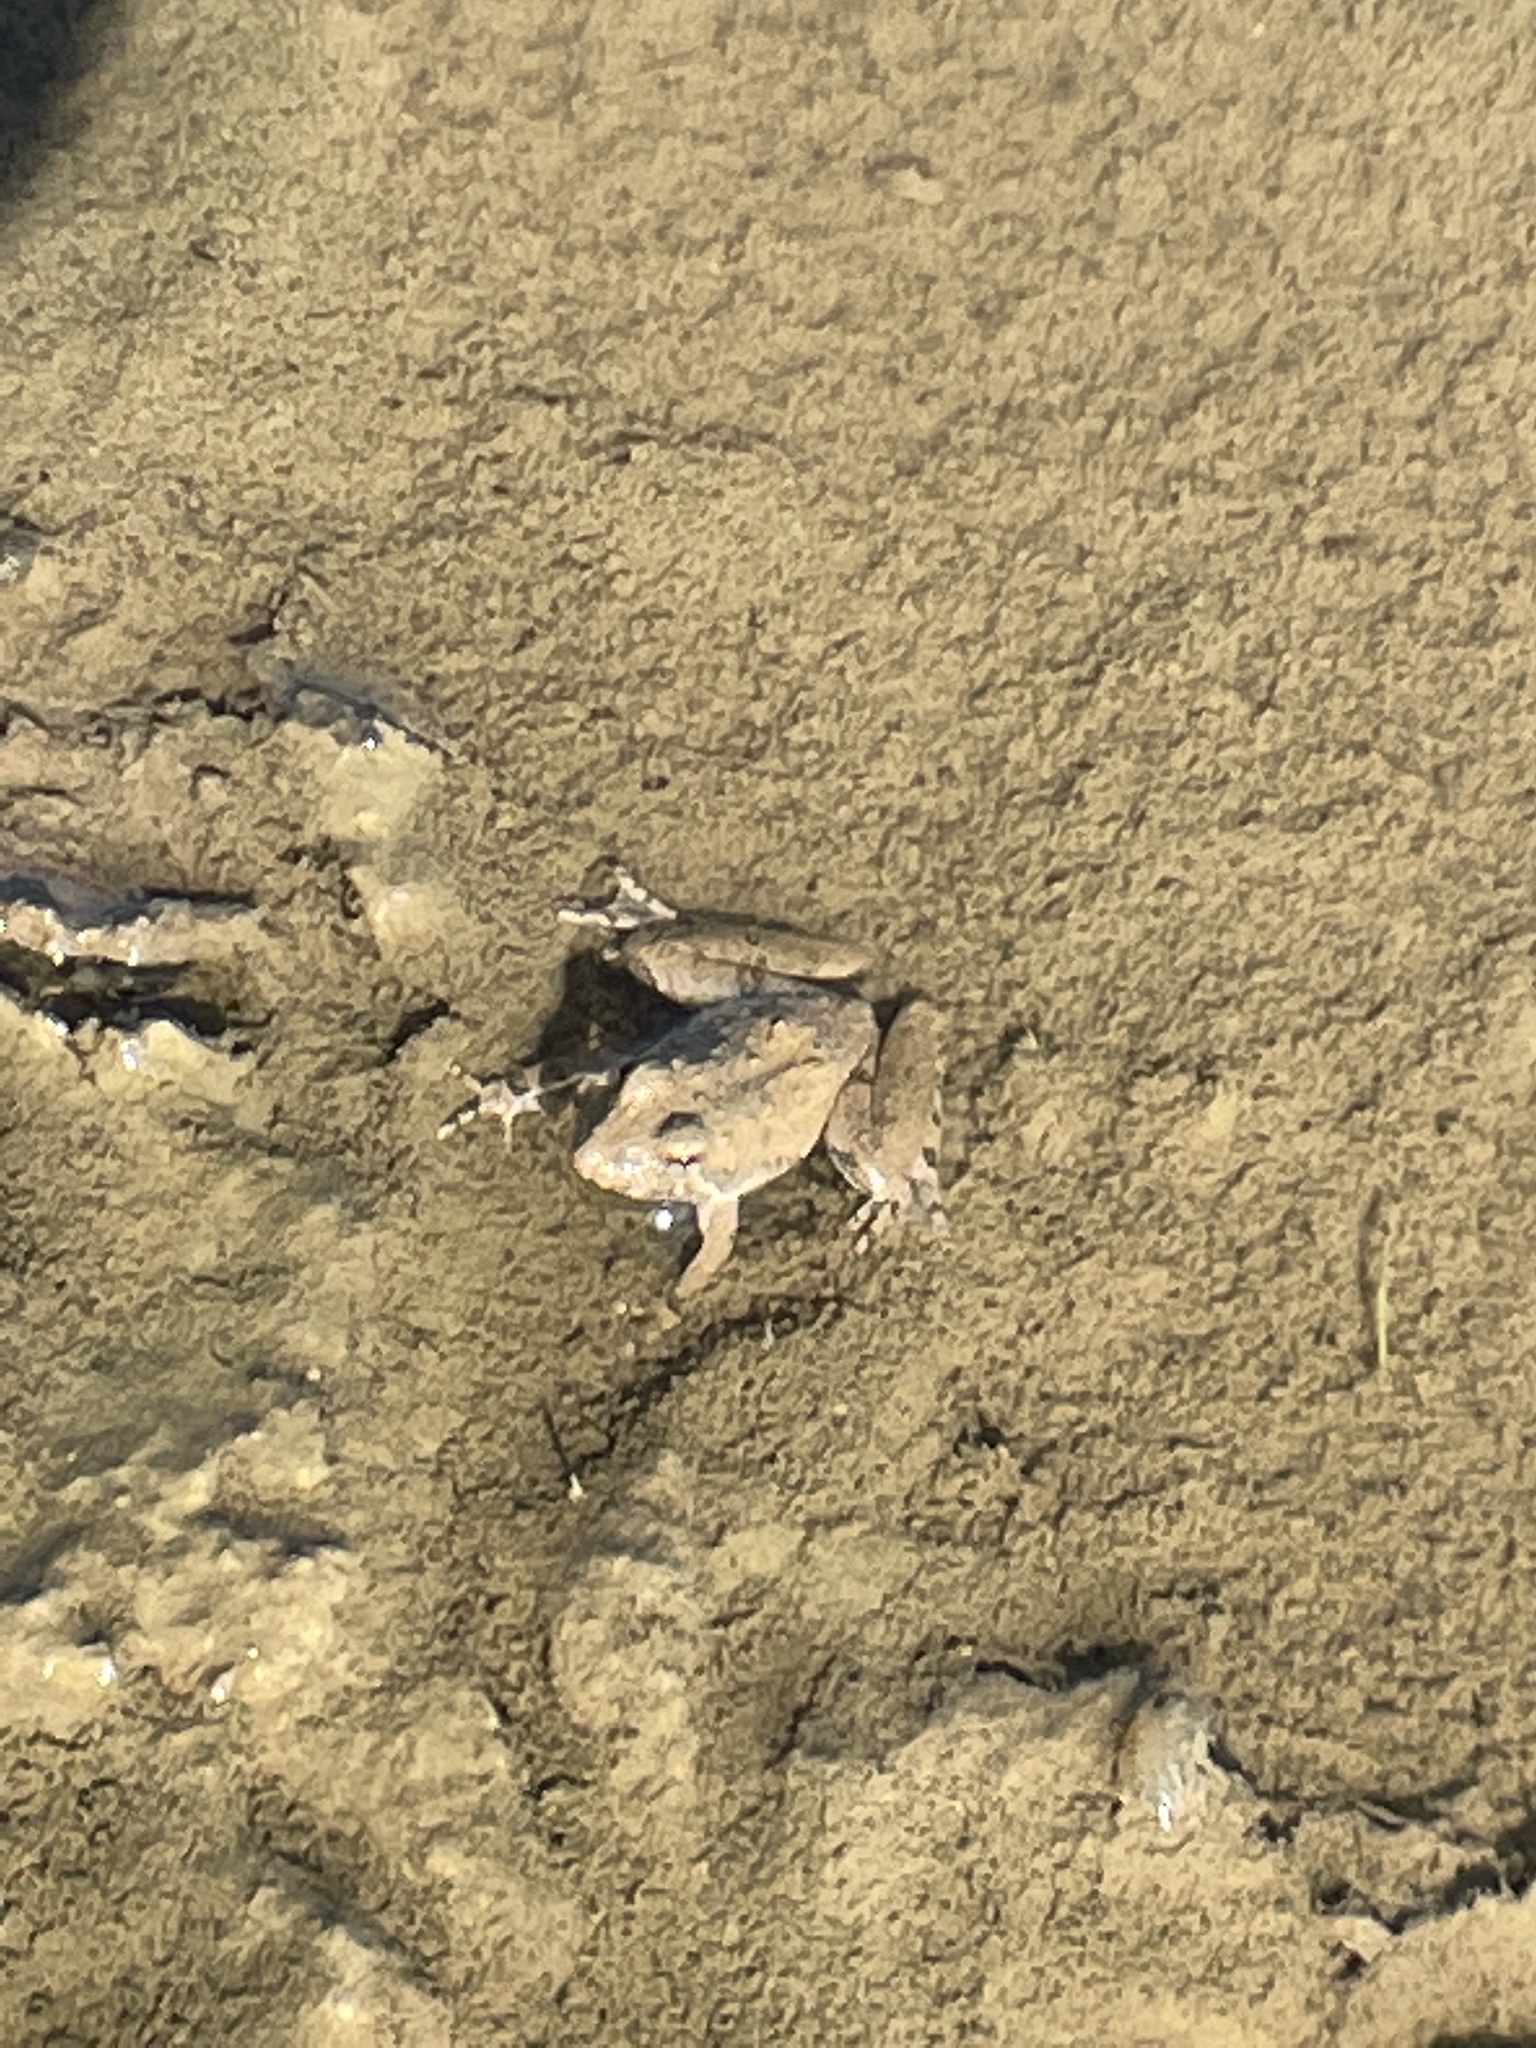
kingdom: Animalia
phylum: Chordata
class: Amphibia
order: Anura
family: Hylidae
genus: Acris
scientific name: Acris blanchardi
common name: Blanchard's cricket frog
